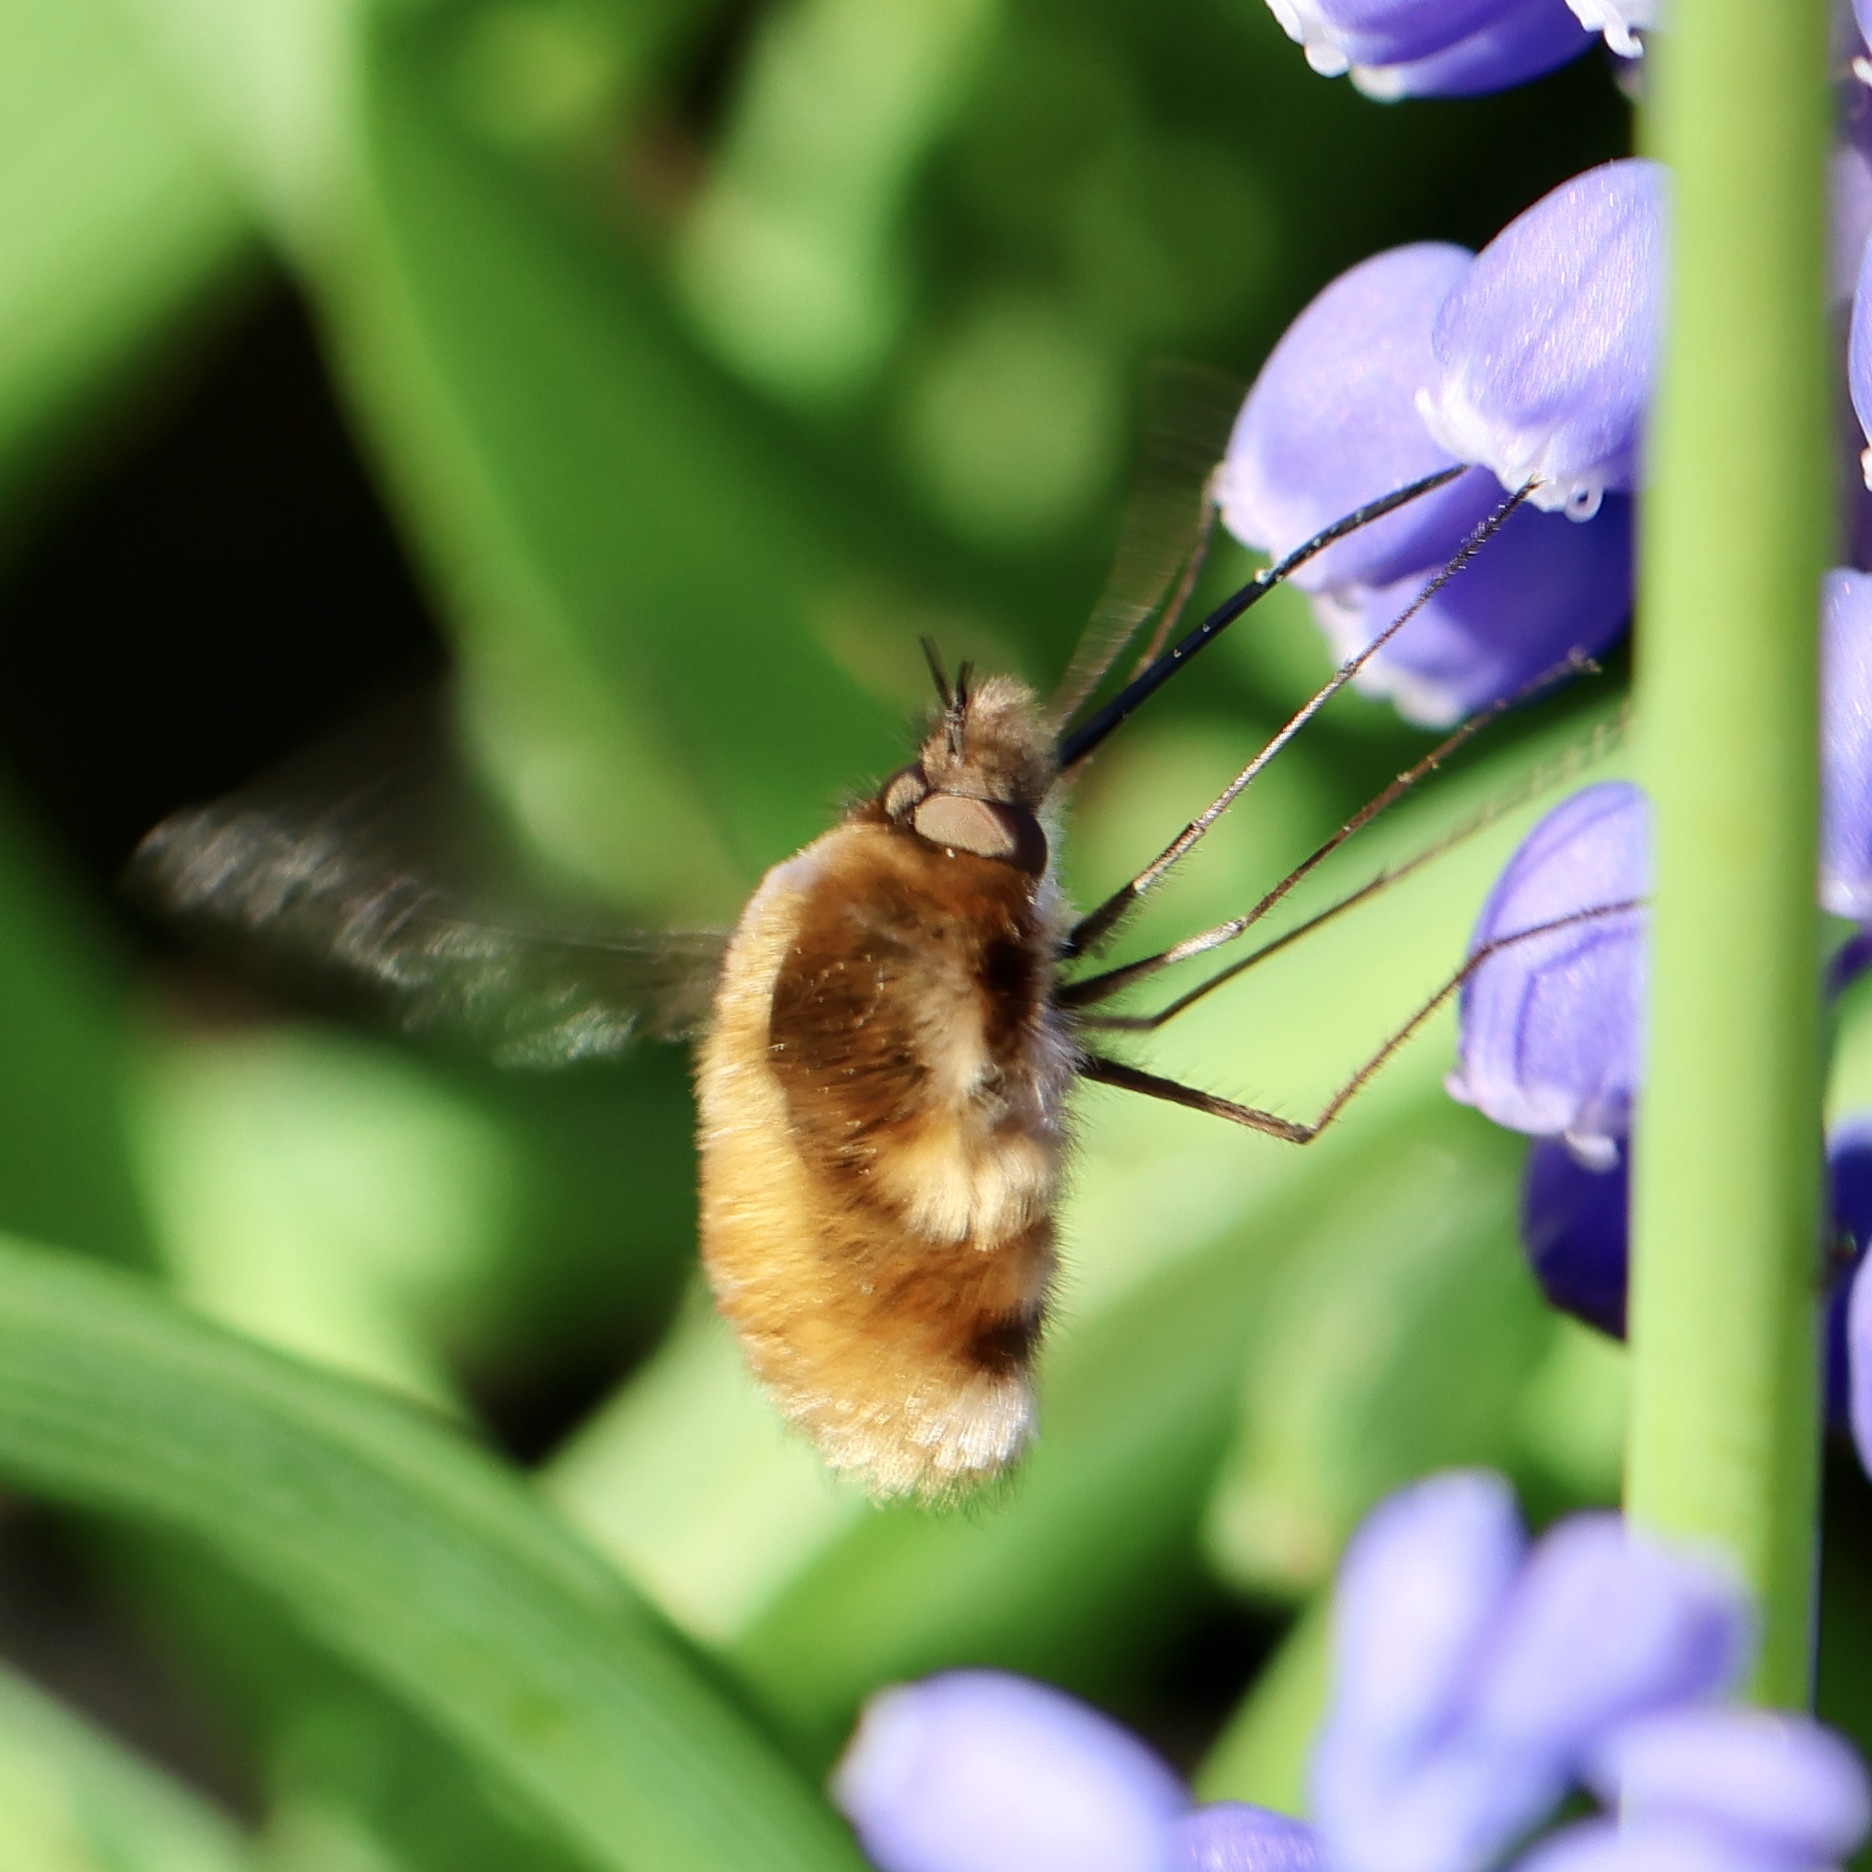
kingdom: Animalia
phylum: Arthropoda
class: Insecta
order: Diptera
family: Bombyliidae
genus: Bombylius
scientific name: Bombylius major
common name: Bee fly
